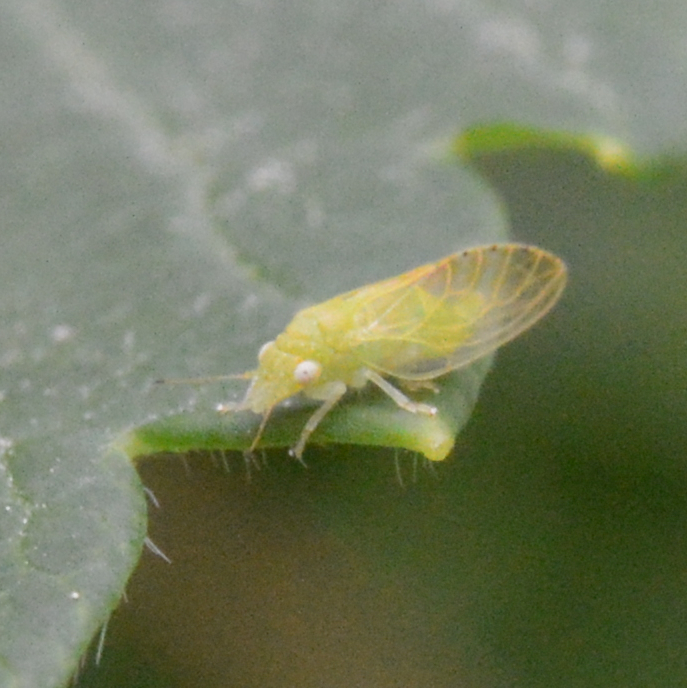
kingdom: Animalia
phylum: Arthropoda
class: Insecta
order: Hemiptera
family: Psyllidae
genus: Spanioneura
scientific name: Spanioneura fonscolombii
